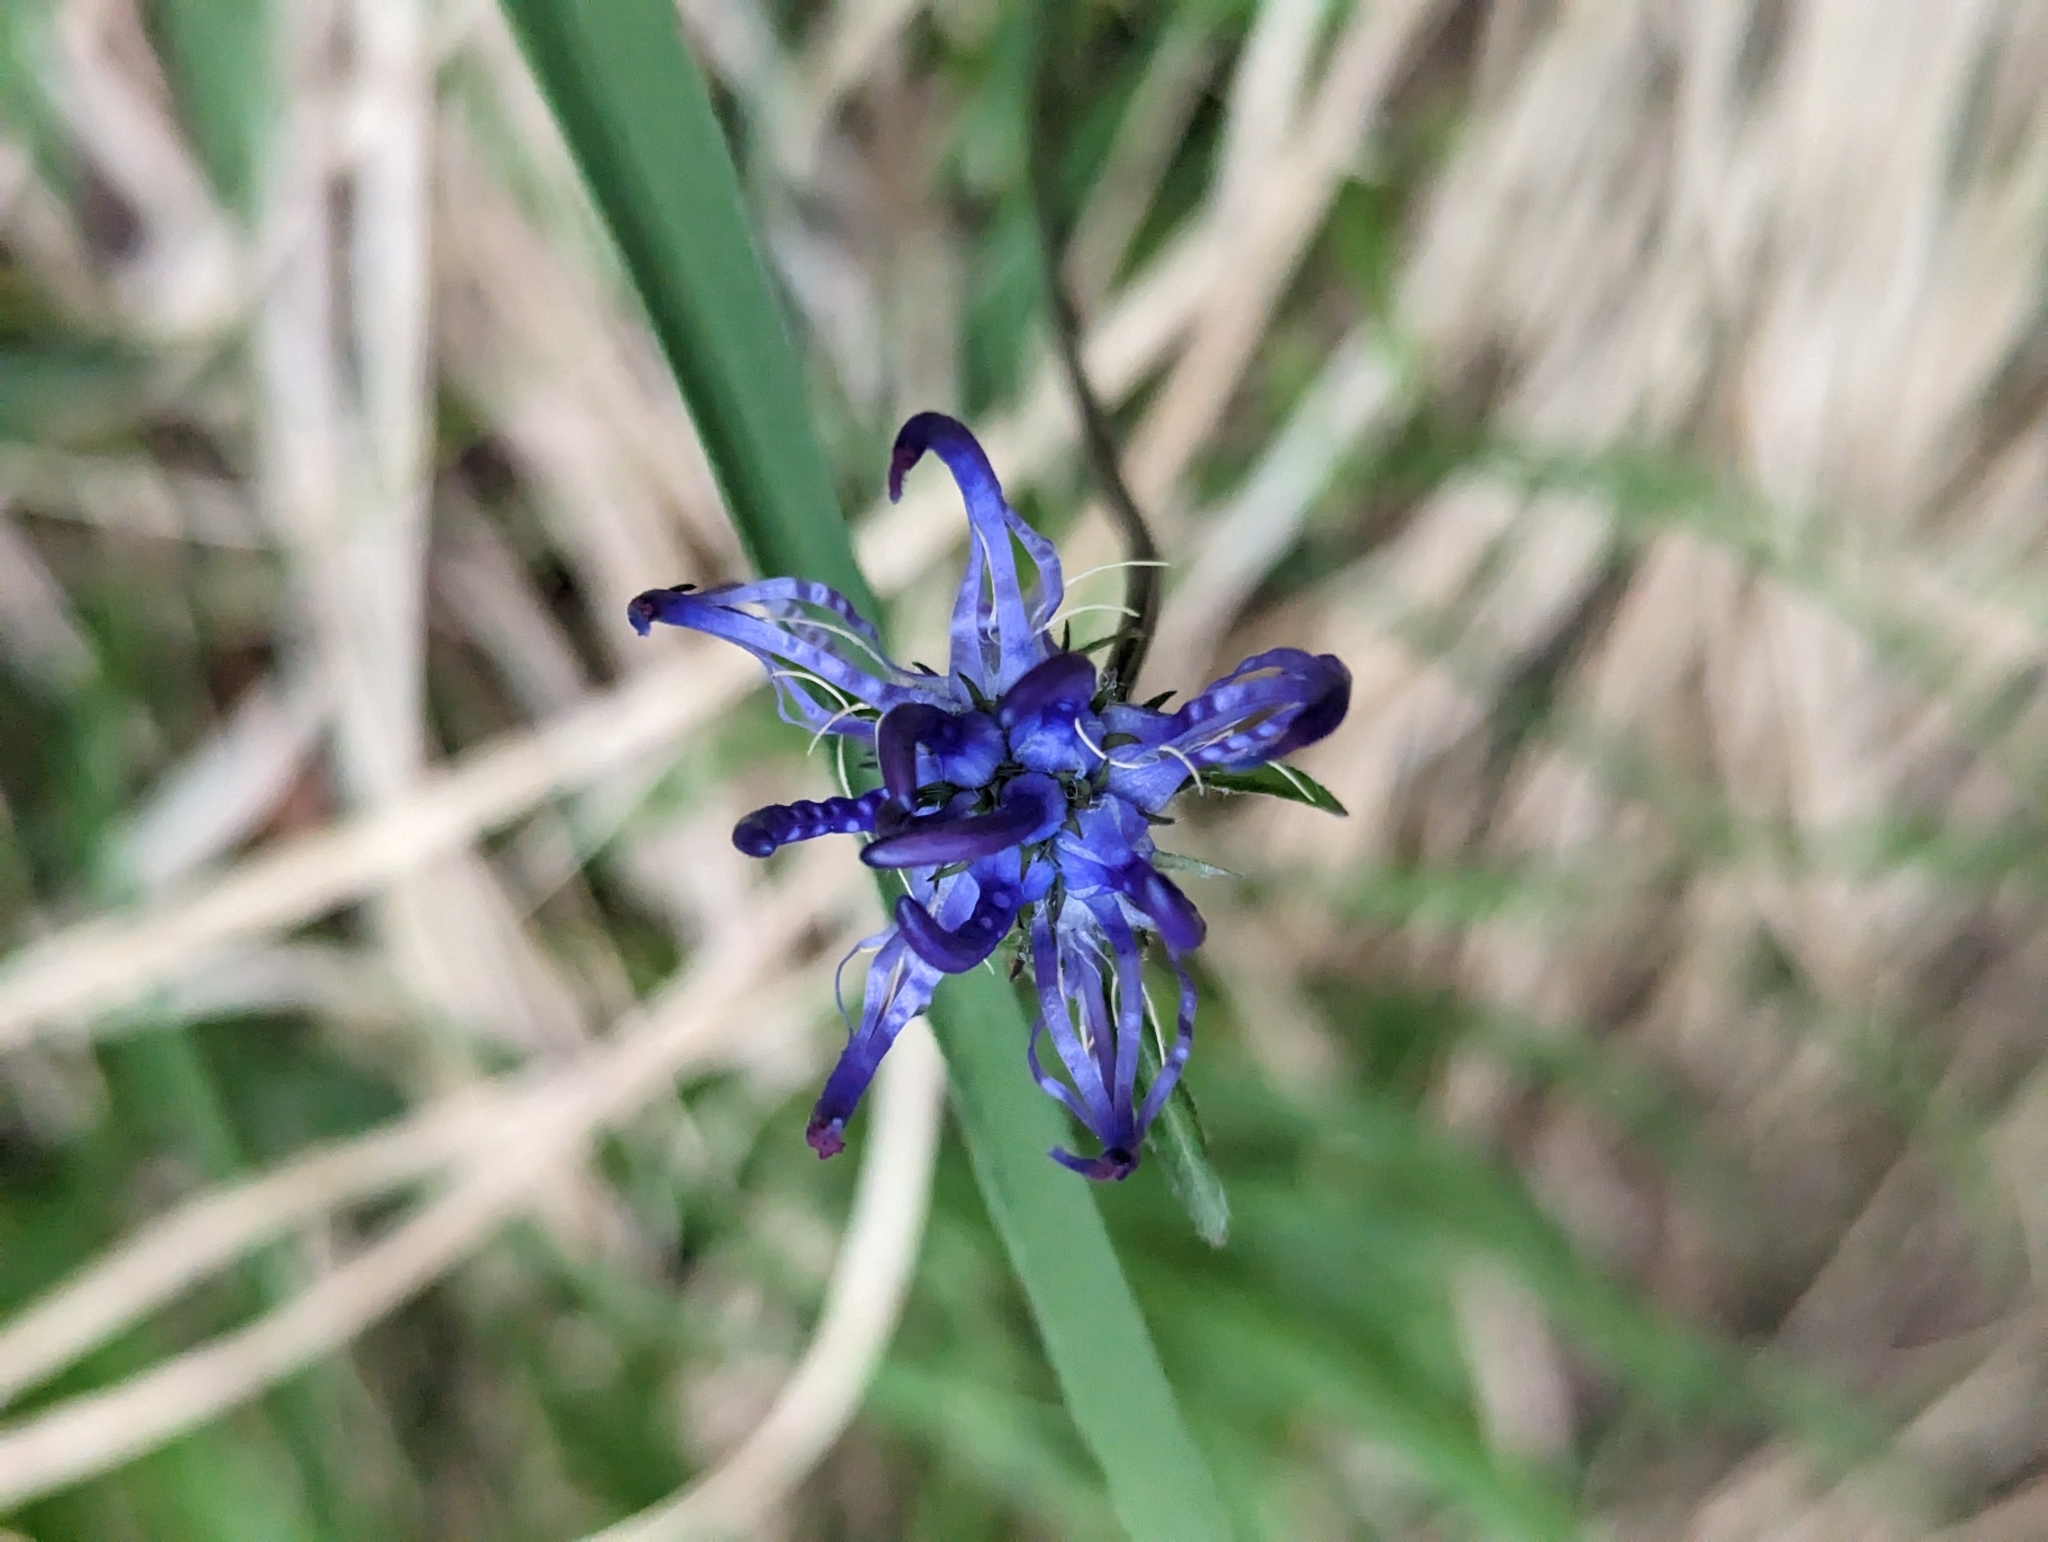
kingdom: Plantae
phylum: Tracheophyta
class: Magnoliopsida
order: Asterales
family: Campanulaceae
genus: Phyteuma
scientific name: Phyteuma orbiculare
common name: Round-headed rampion
